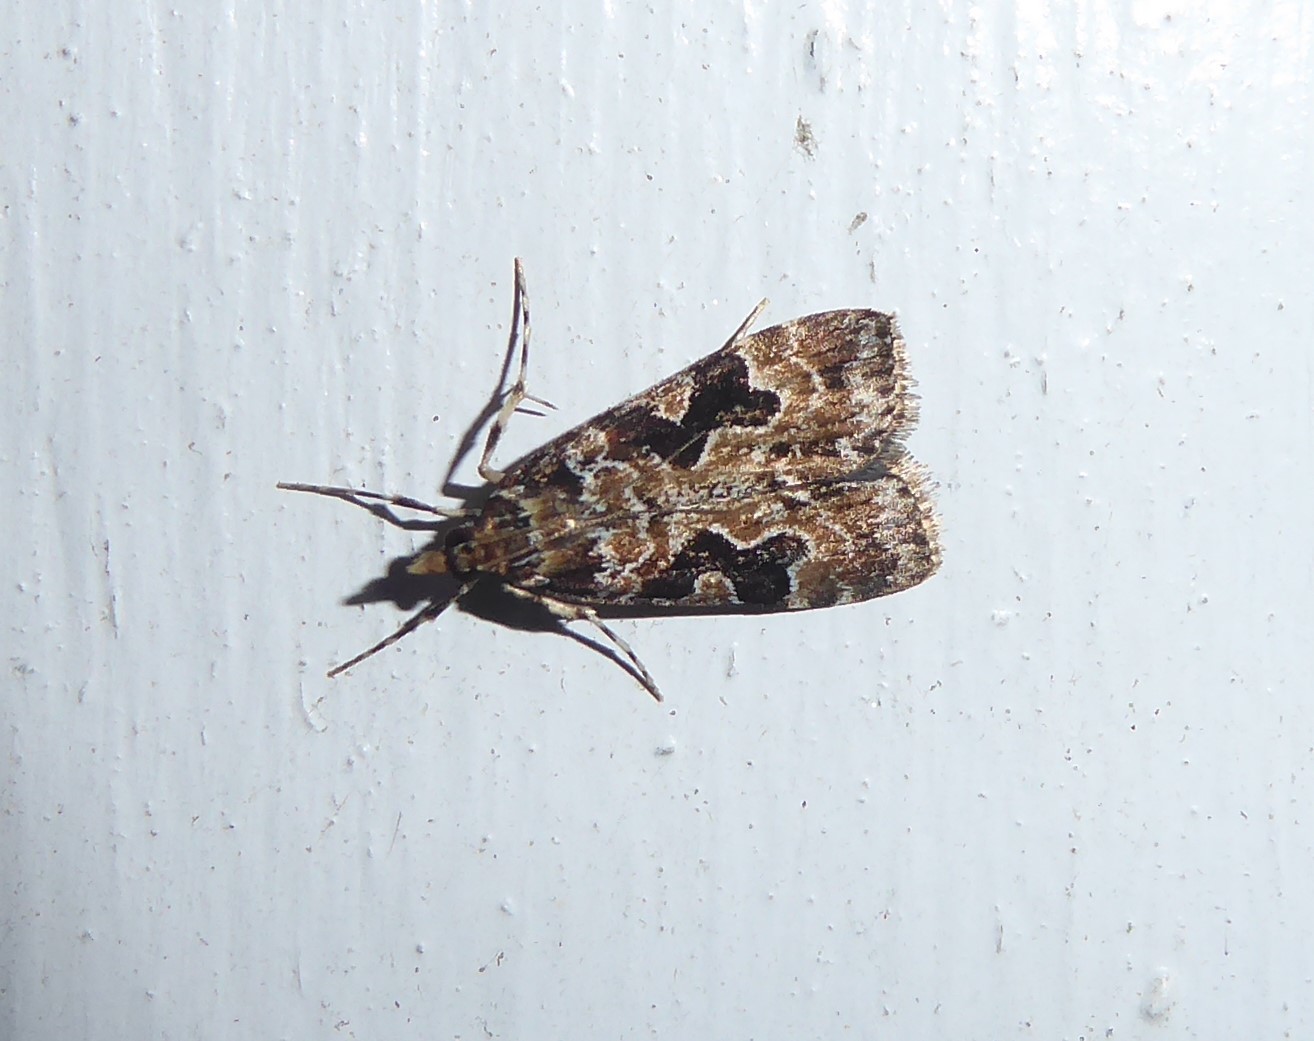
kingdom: Animalia
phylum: Arthropoda
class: Insecta
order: Lepidoptera
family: Crambidae
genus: Scoparia
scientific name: Scoparia ustimacula
